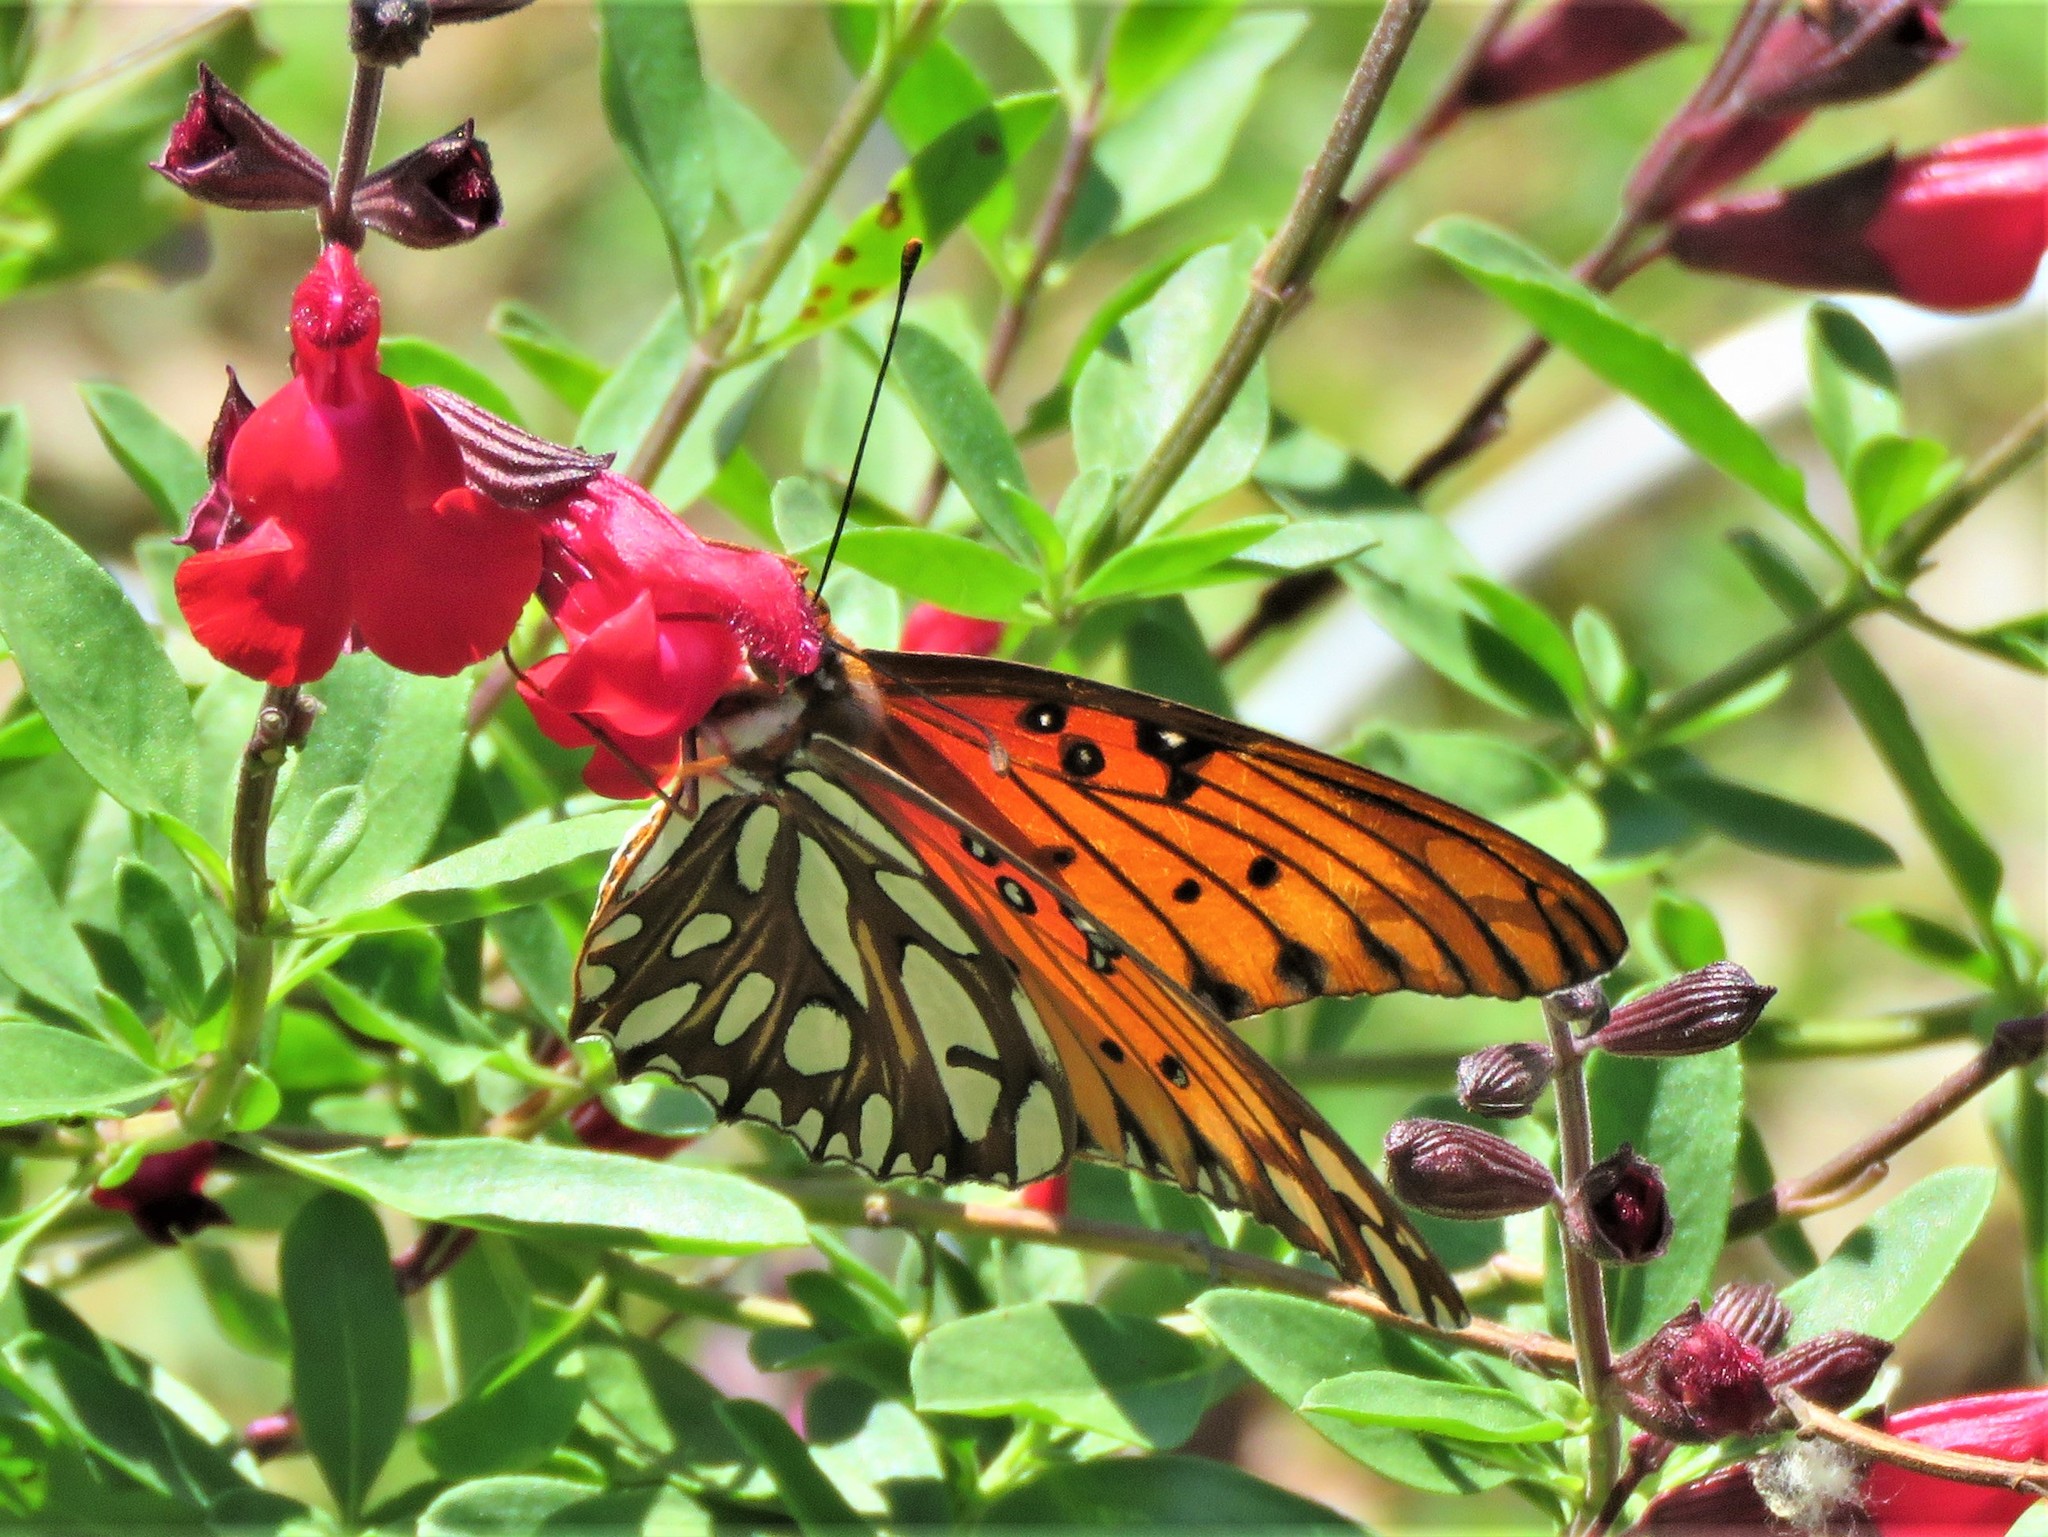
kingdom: Animalia
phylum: Arthropoda
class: Insecta
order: Lepidoptera
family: Nymphalidae
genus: Dione
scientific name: Dione vanillae
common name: Gulf fritillary
